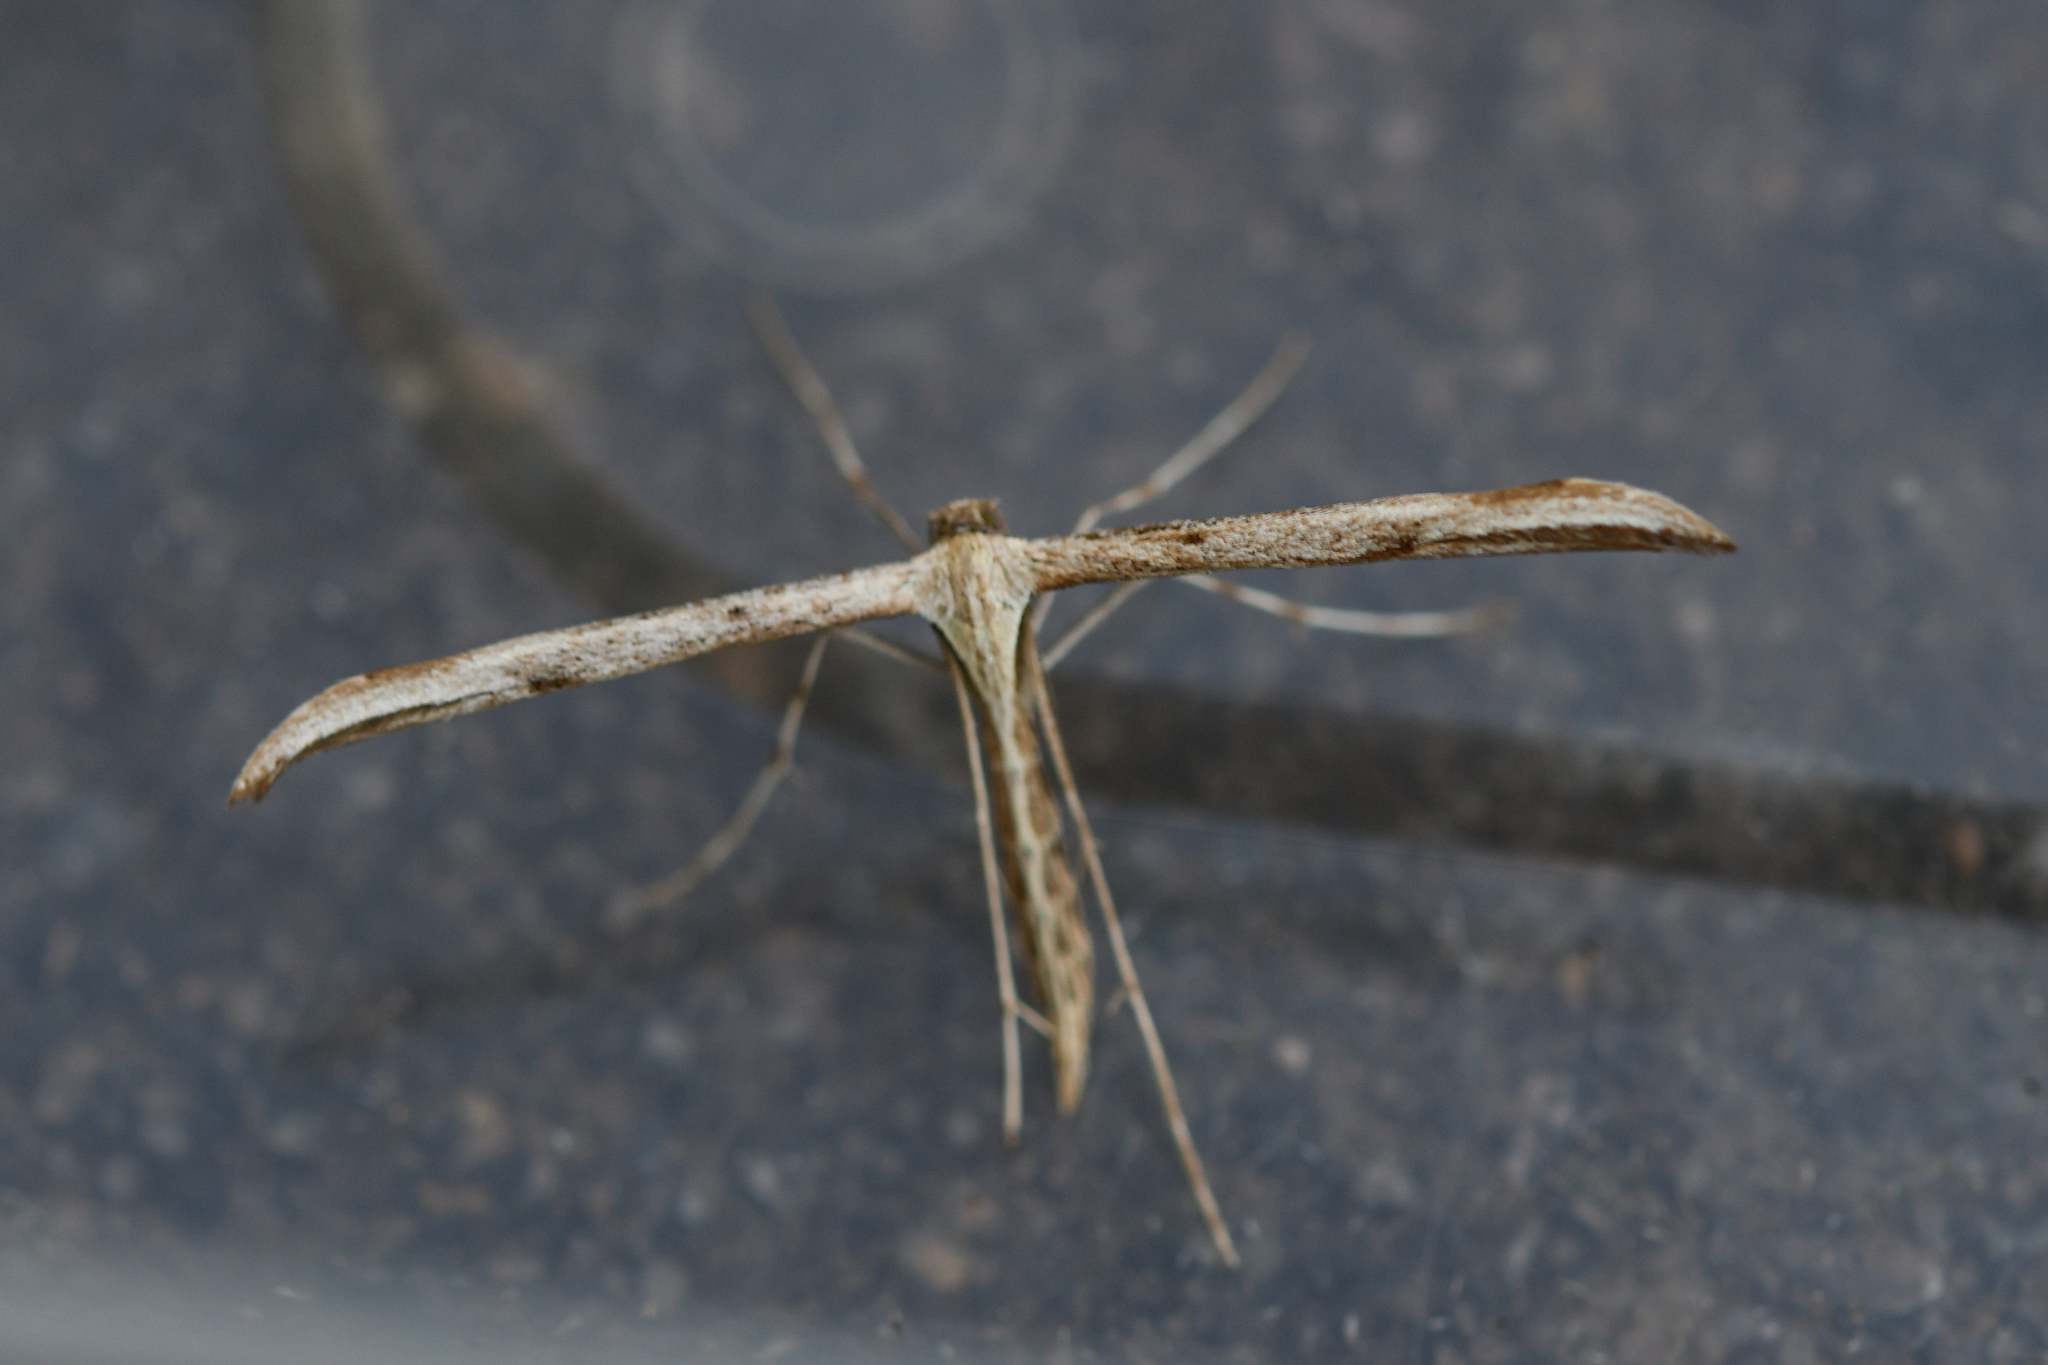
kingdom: Animalia
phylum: Arthropoda
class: Insecta
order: Lepidoptera
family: Pterophoridae
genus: Emmelina
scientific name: Emmelina monodactyla
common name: Common plume
